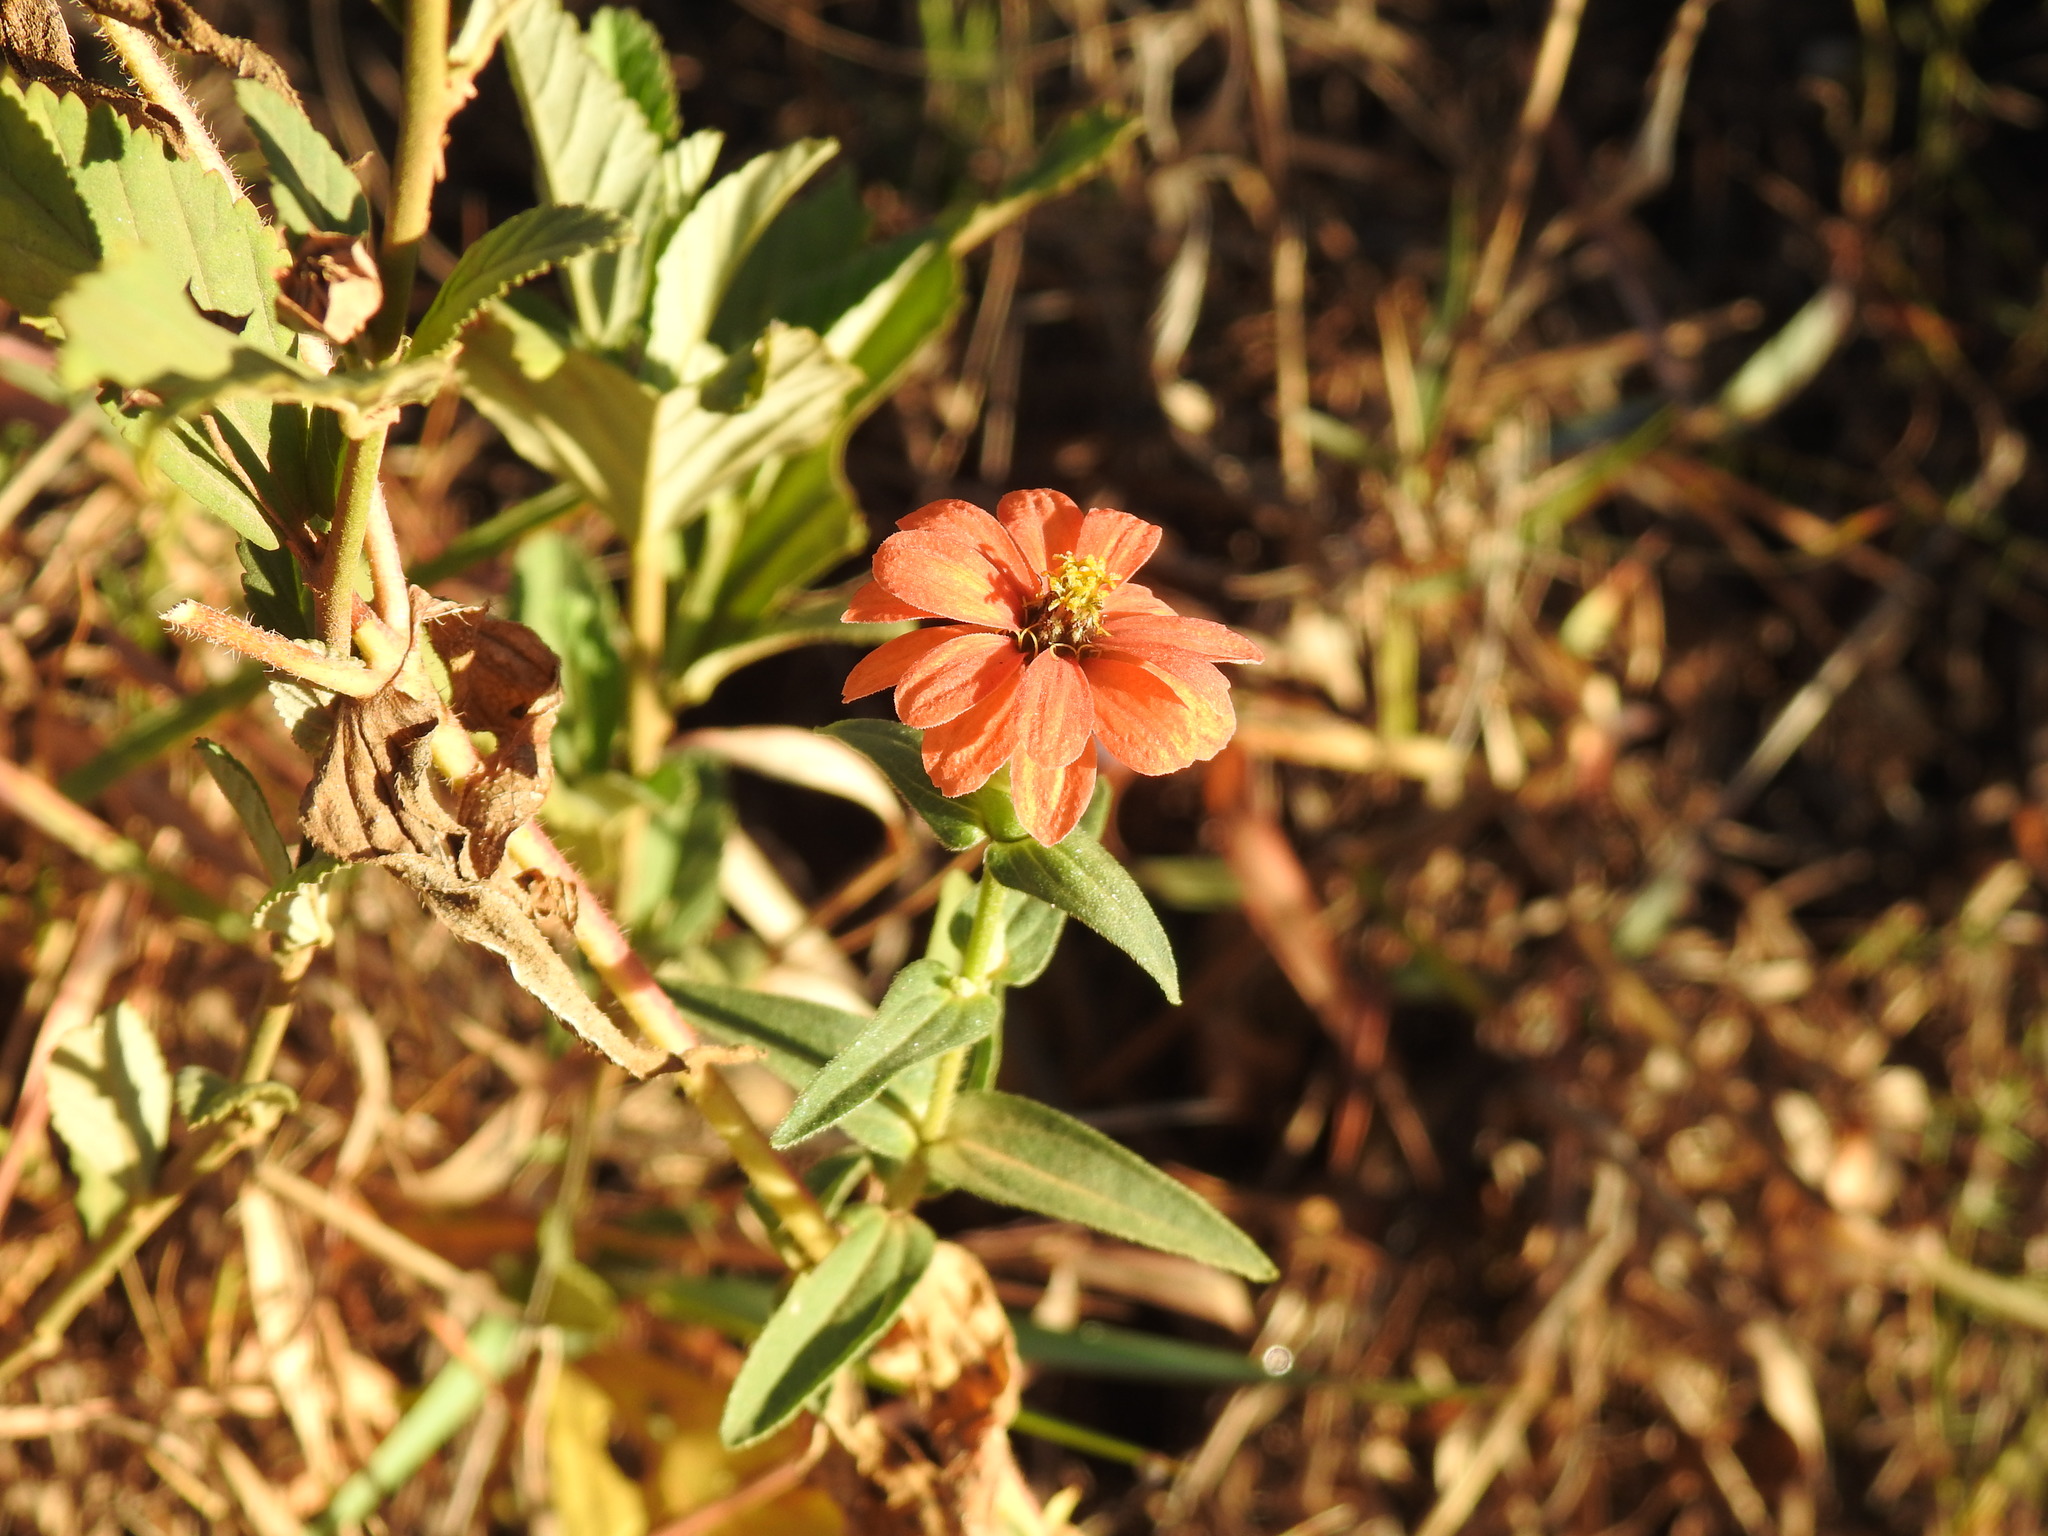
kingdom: Plantae
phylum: Tracheophyta
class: Magnoliopsida
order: Asterales
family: Asteraceae
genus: Zinnia
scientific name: Zinnia peruviana
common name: Peruvian zinnia
